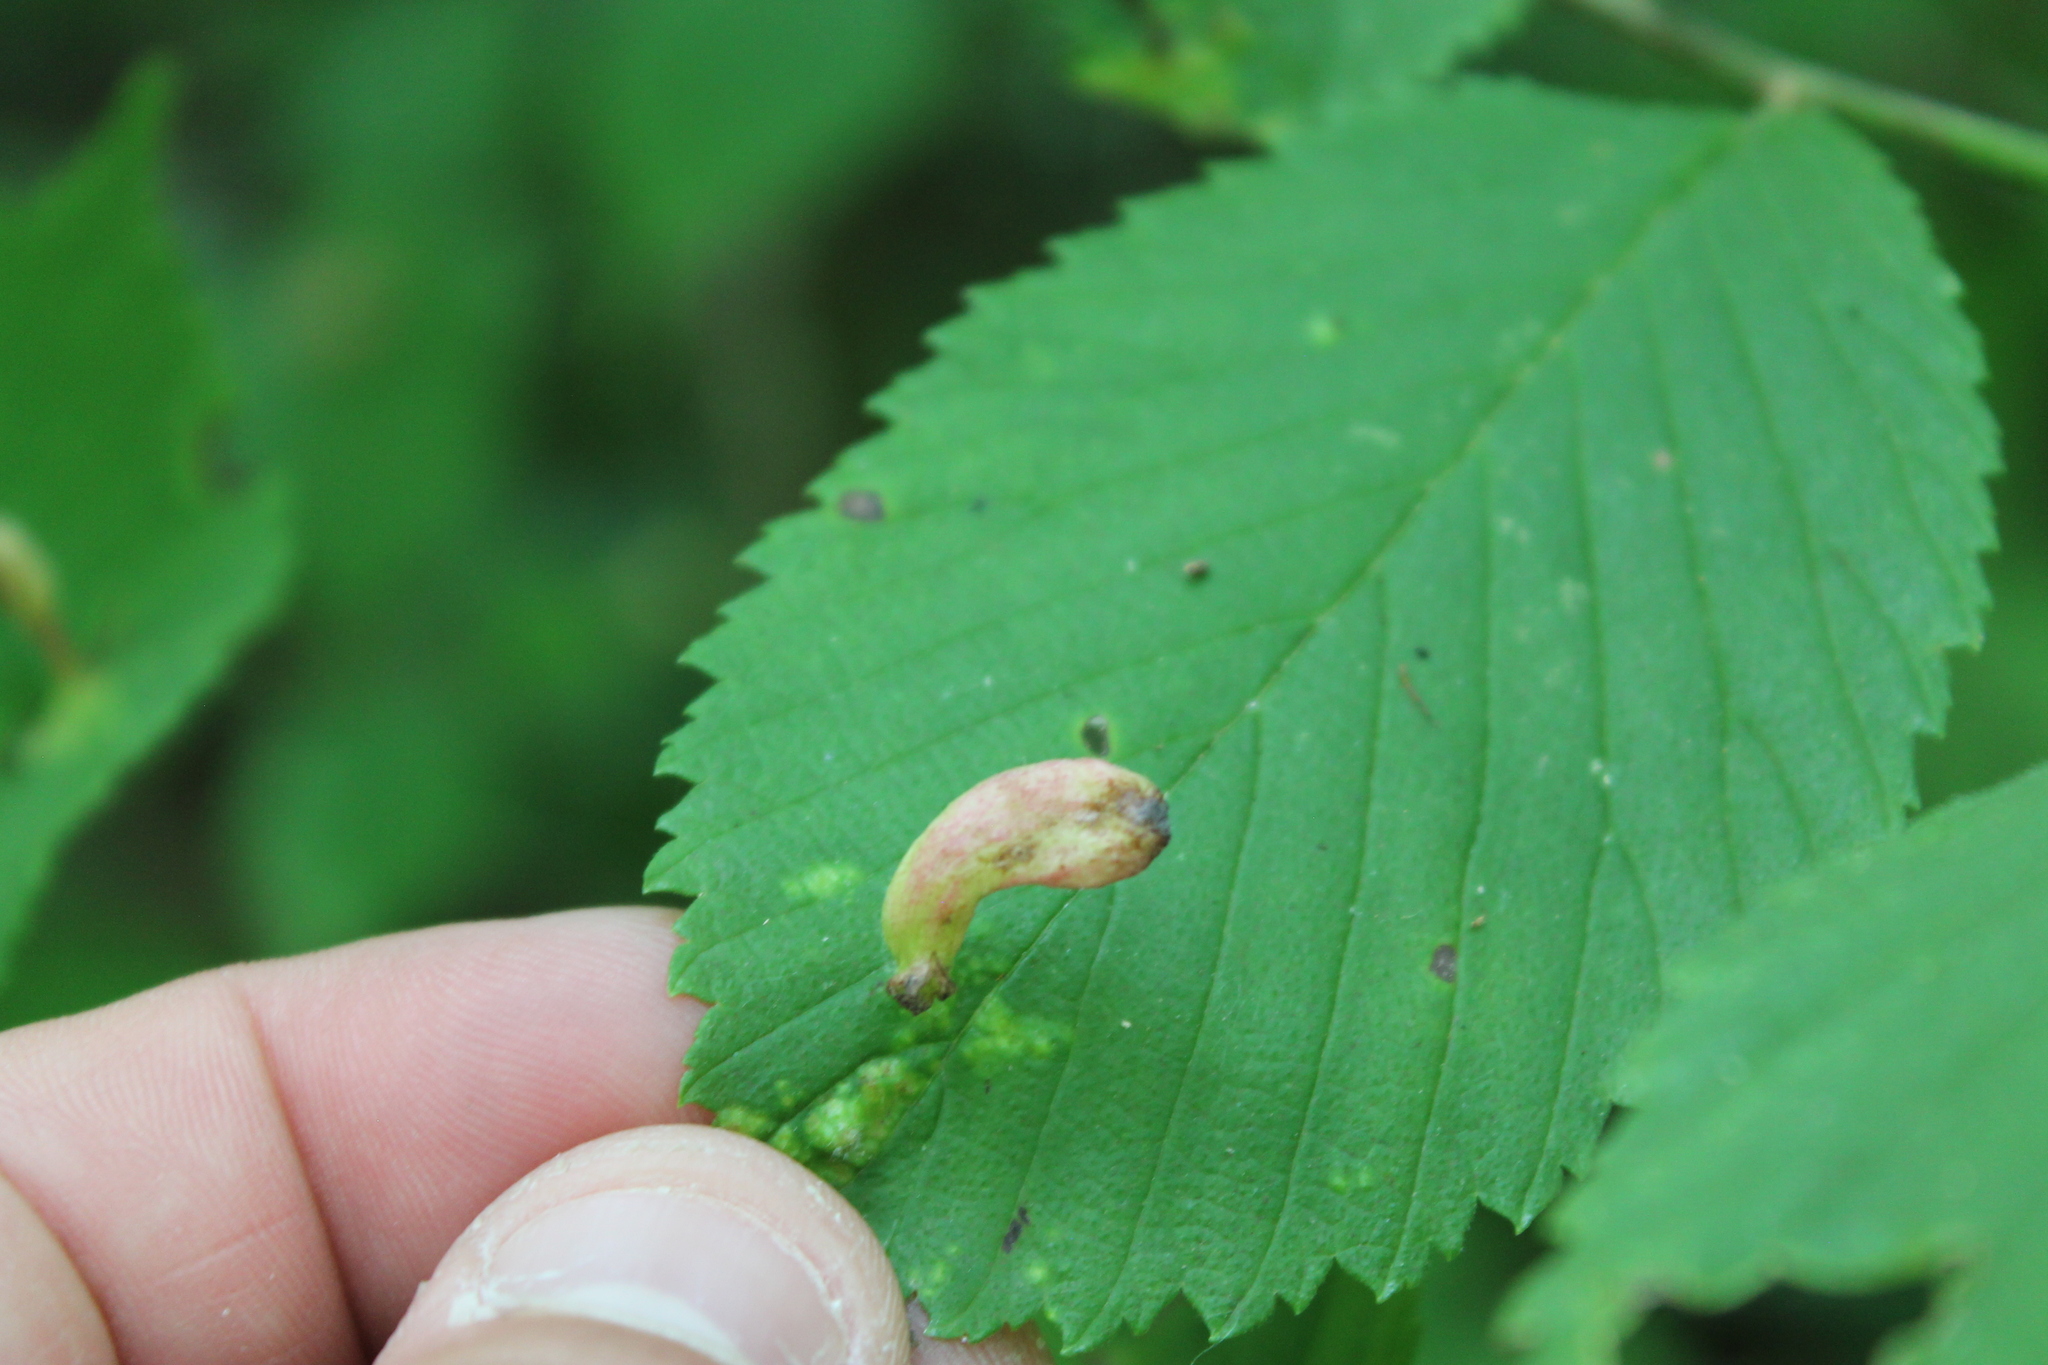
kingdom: Animalia
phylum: Arthropoda
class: Insecta
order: Hemiptera
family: Aphididae
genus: Tetraneura
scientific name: Tetraneura nigriabdominalis
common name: Aphid
